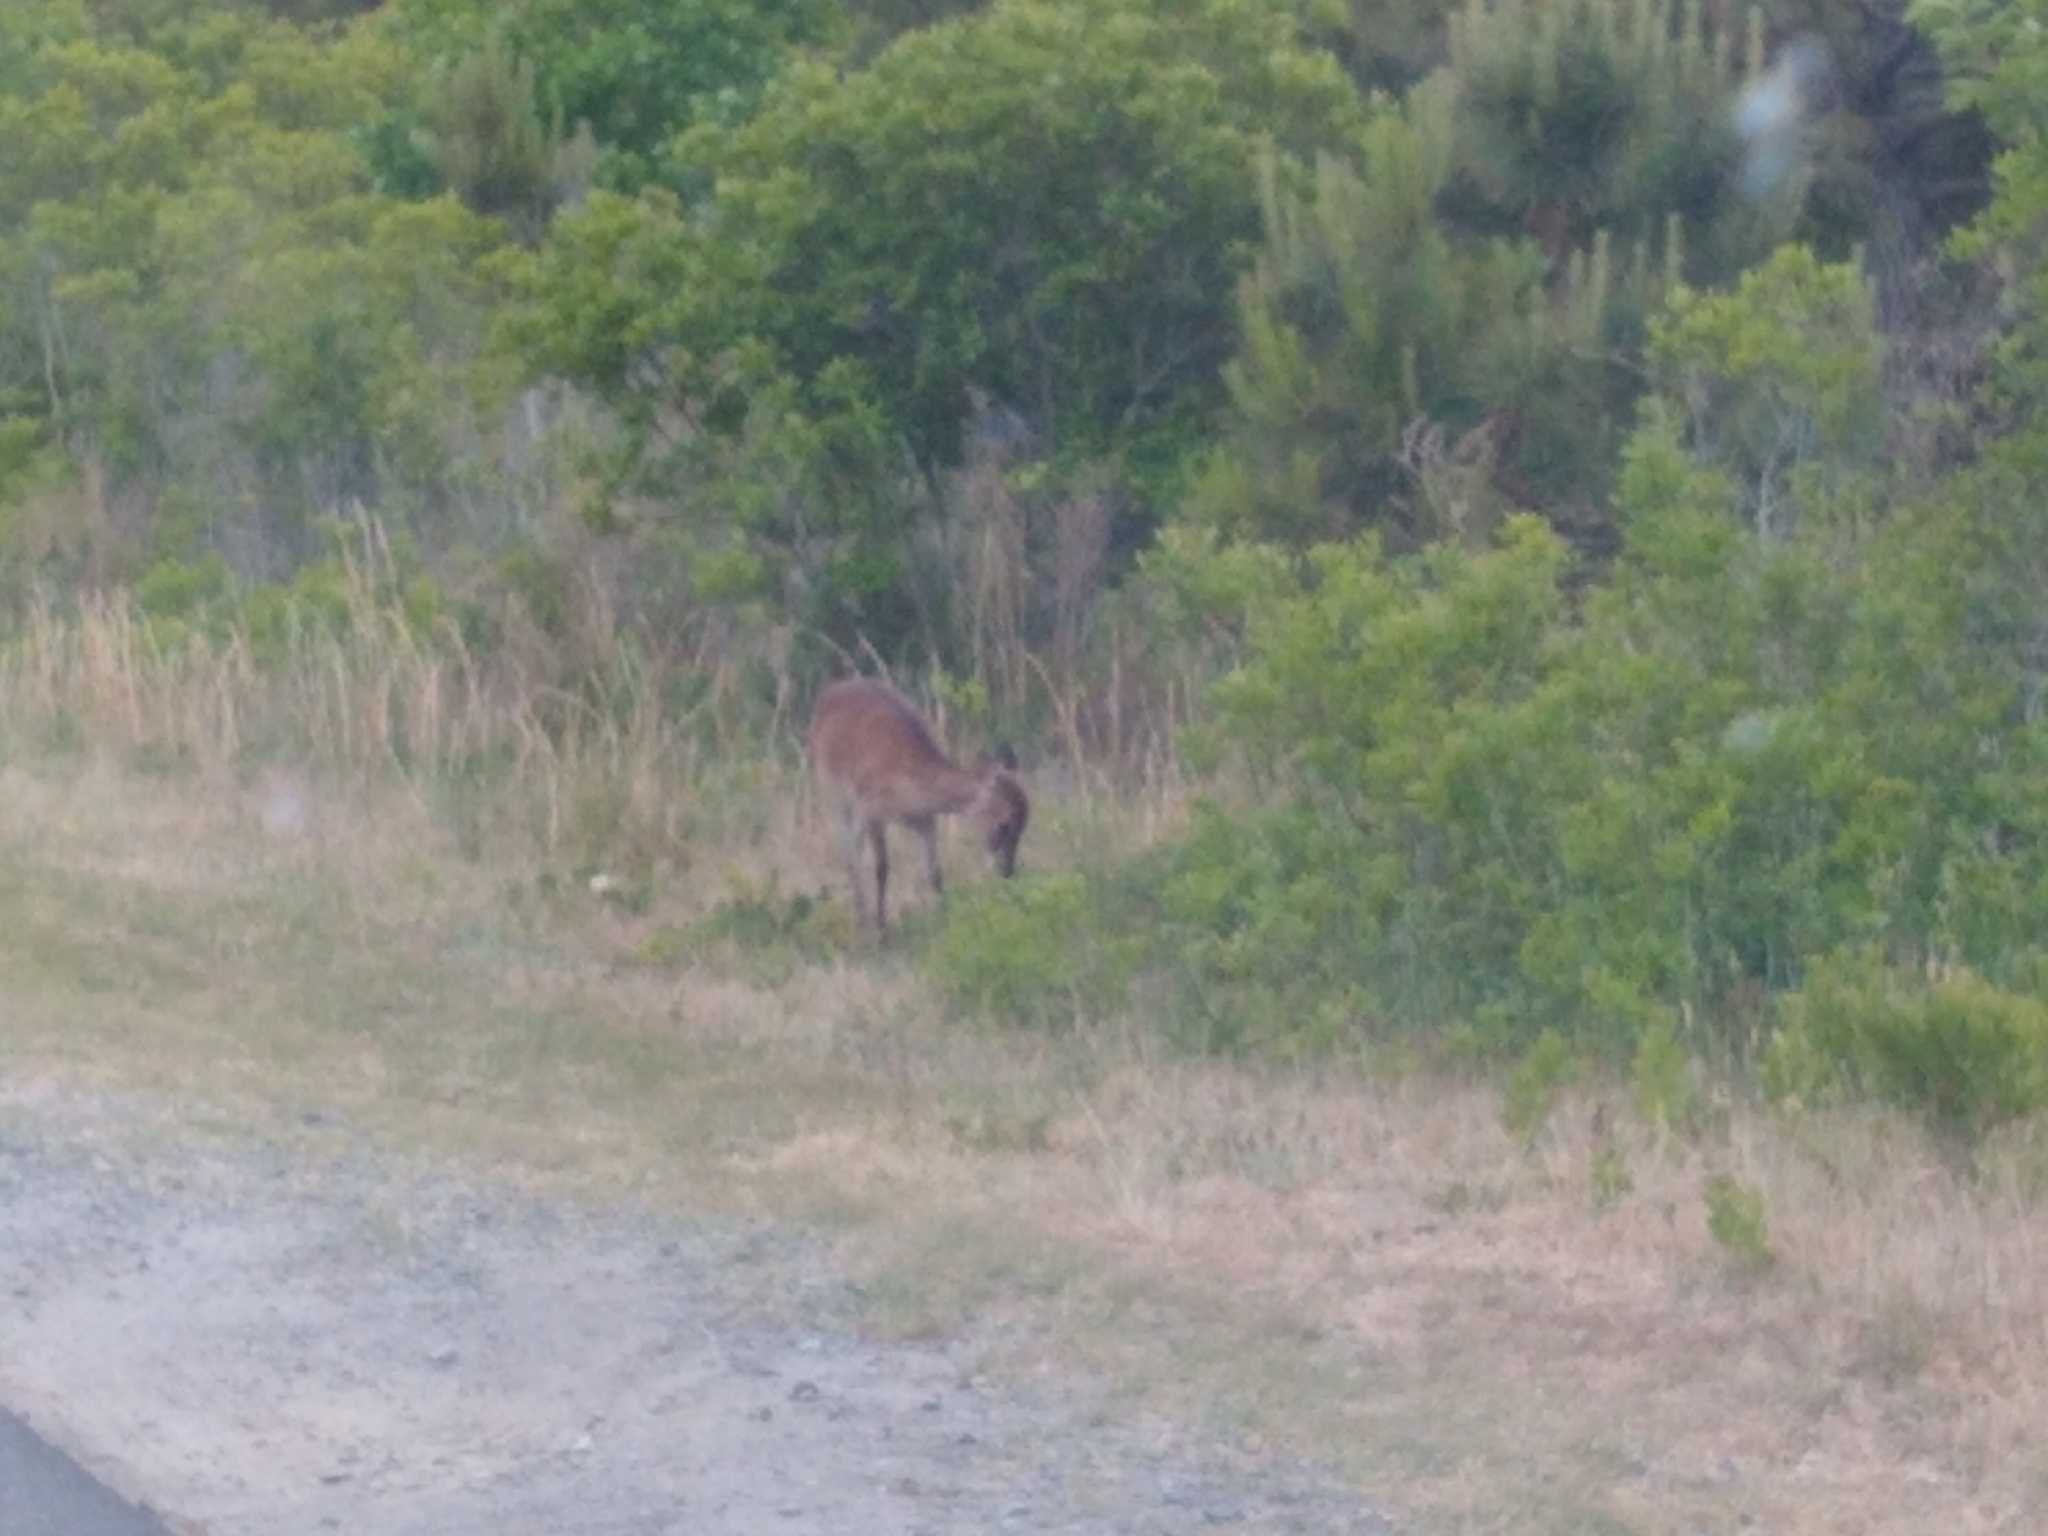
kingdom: Animalia
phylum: Chordata
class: Mammalia
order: Artiodactyla
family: Cervidae
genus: Cervus
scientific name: Cervus nippon
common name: Sika deer
